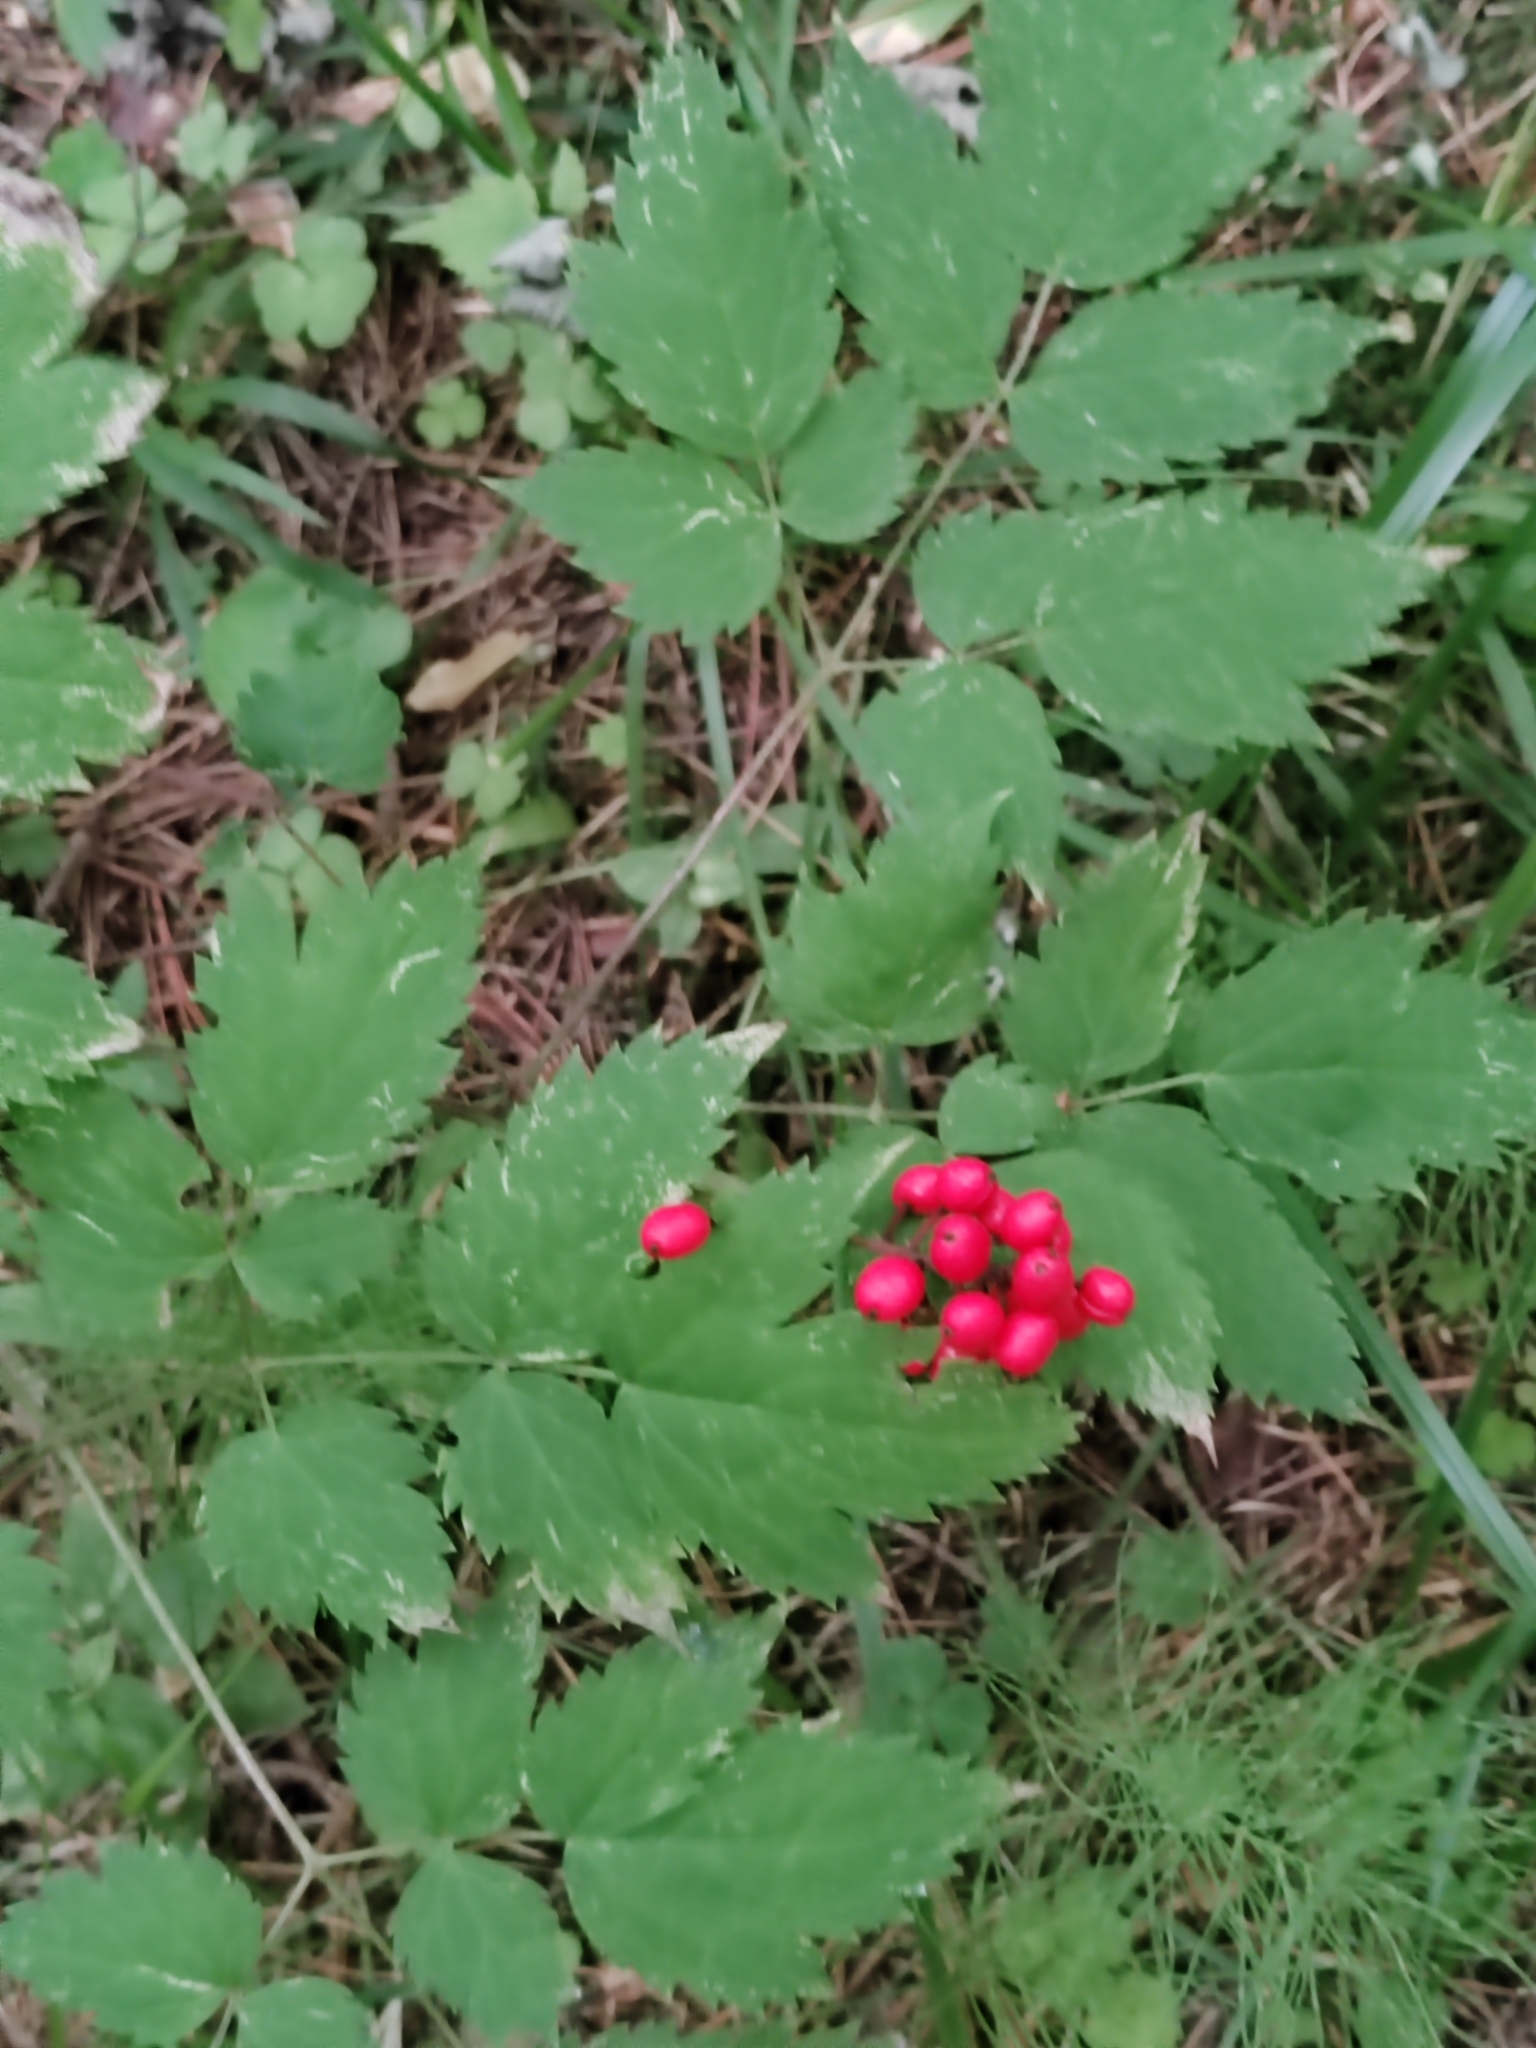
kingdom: Plantae
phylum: Tracheophyta
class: Magnoliopsida
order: Ranunculales
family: Ranunculaceae
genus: Actaea
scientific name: Actaea erythrocarpa
